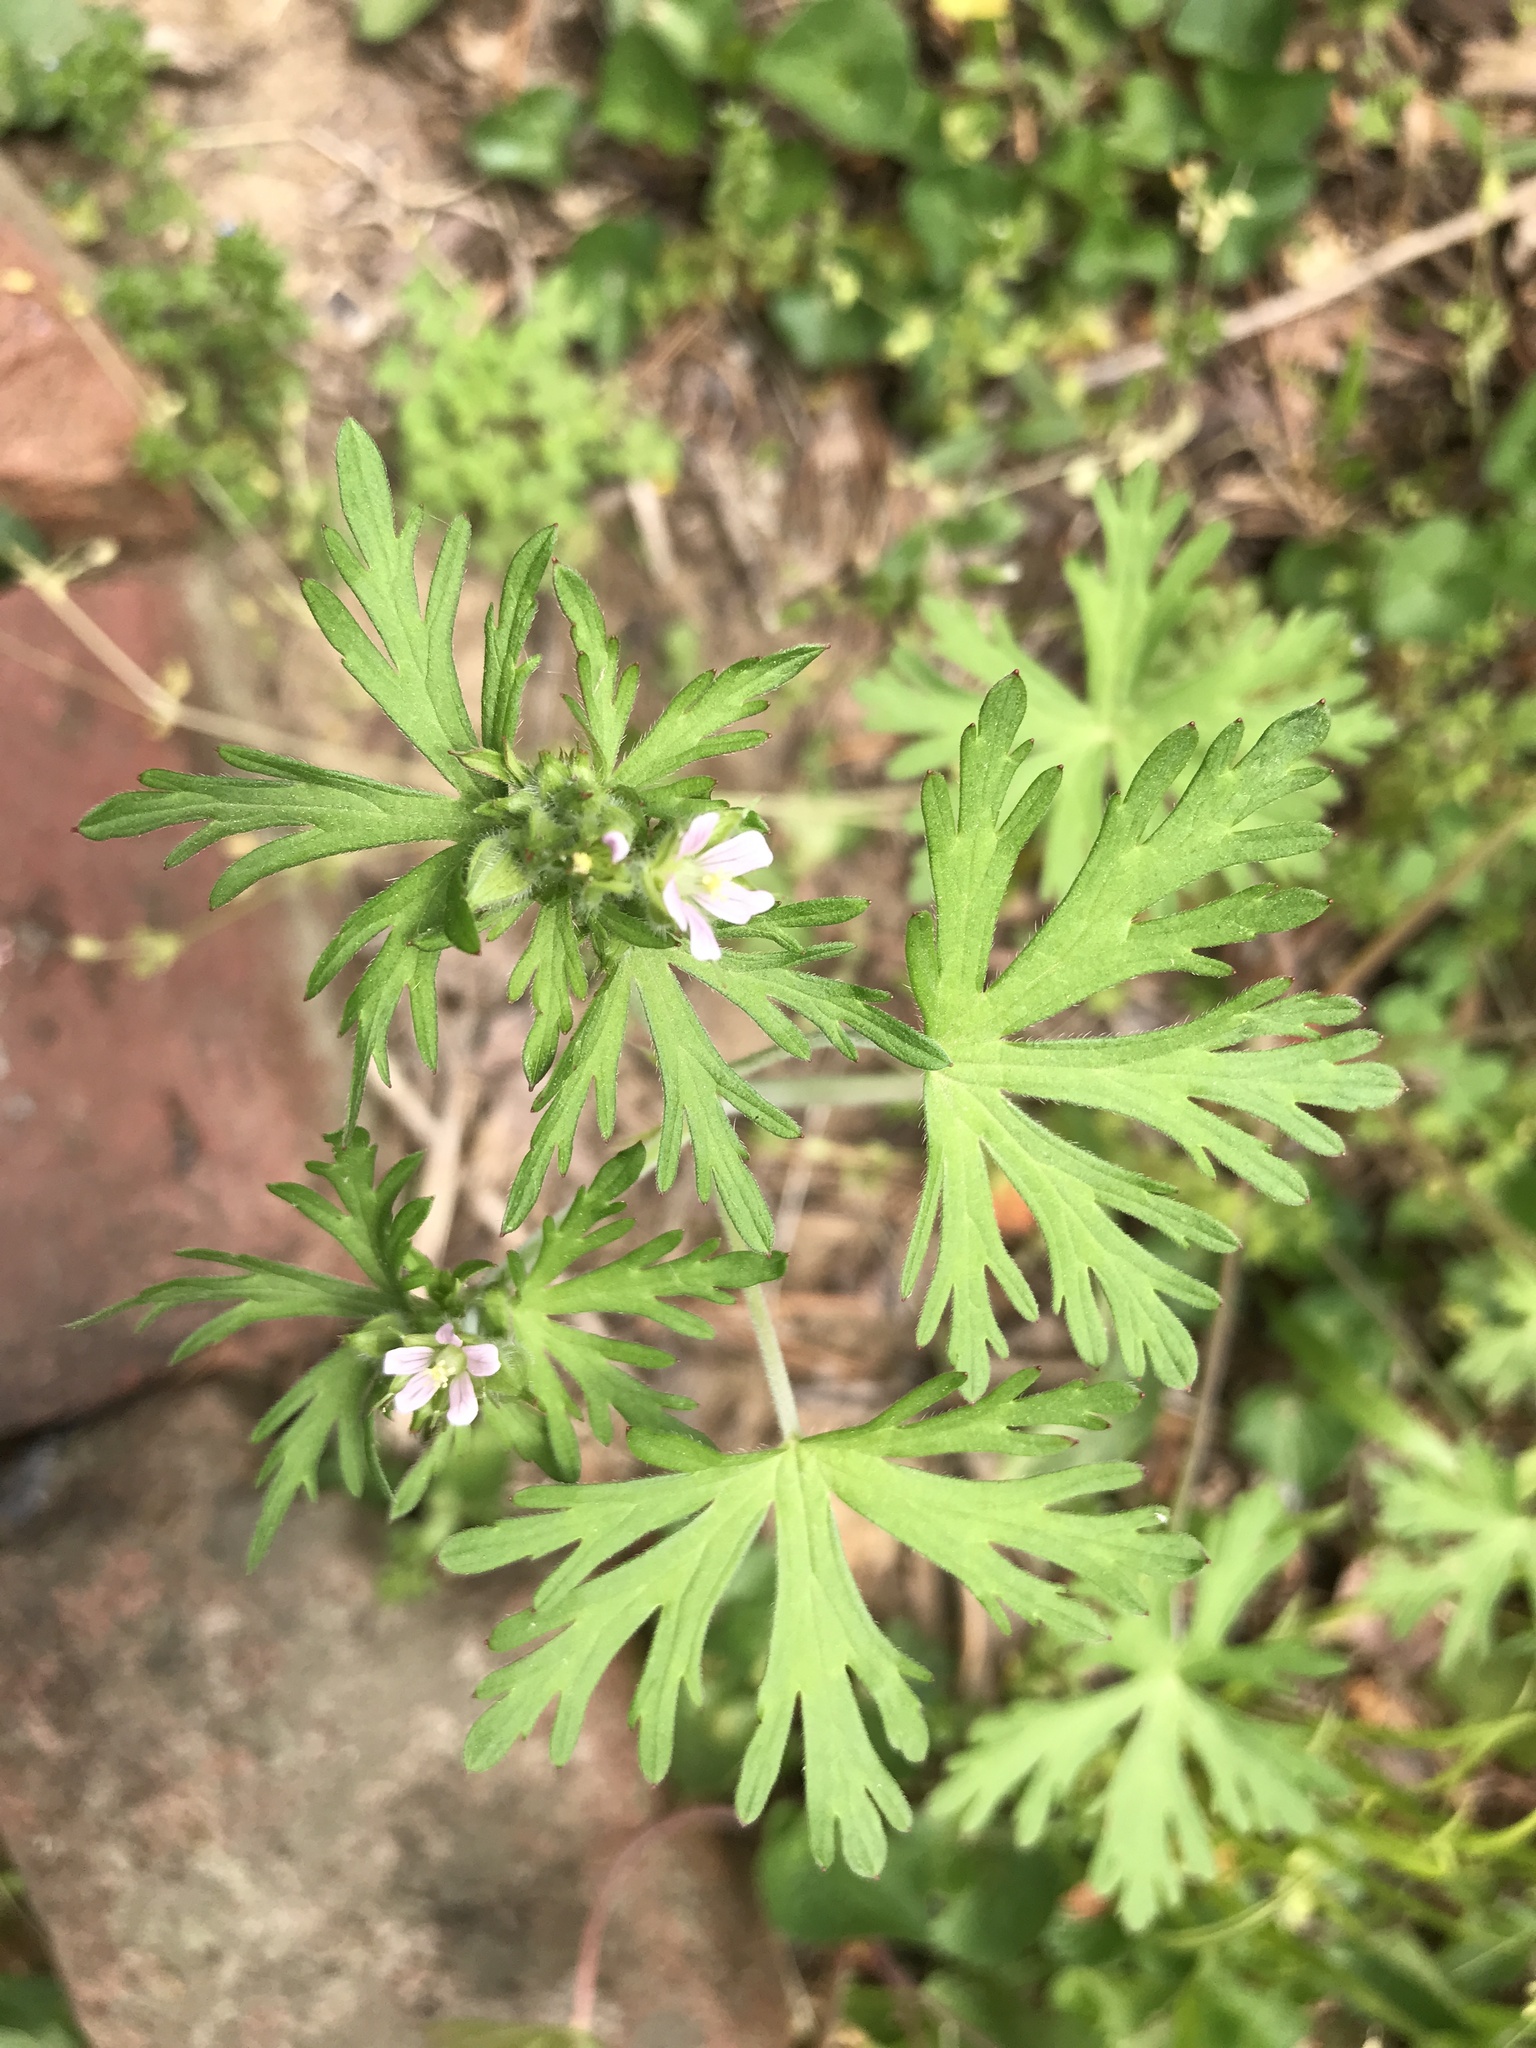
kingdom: Plantae
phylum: Tracheophyta
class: Magnoliopsida
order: Geraniales
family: Geraniaceae
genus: Geranium
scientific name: Geranium carolinianum
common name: Carolina crane's-bill
